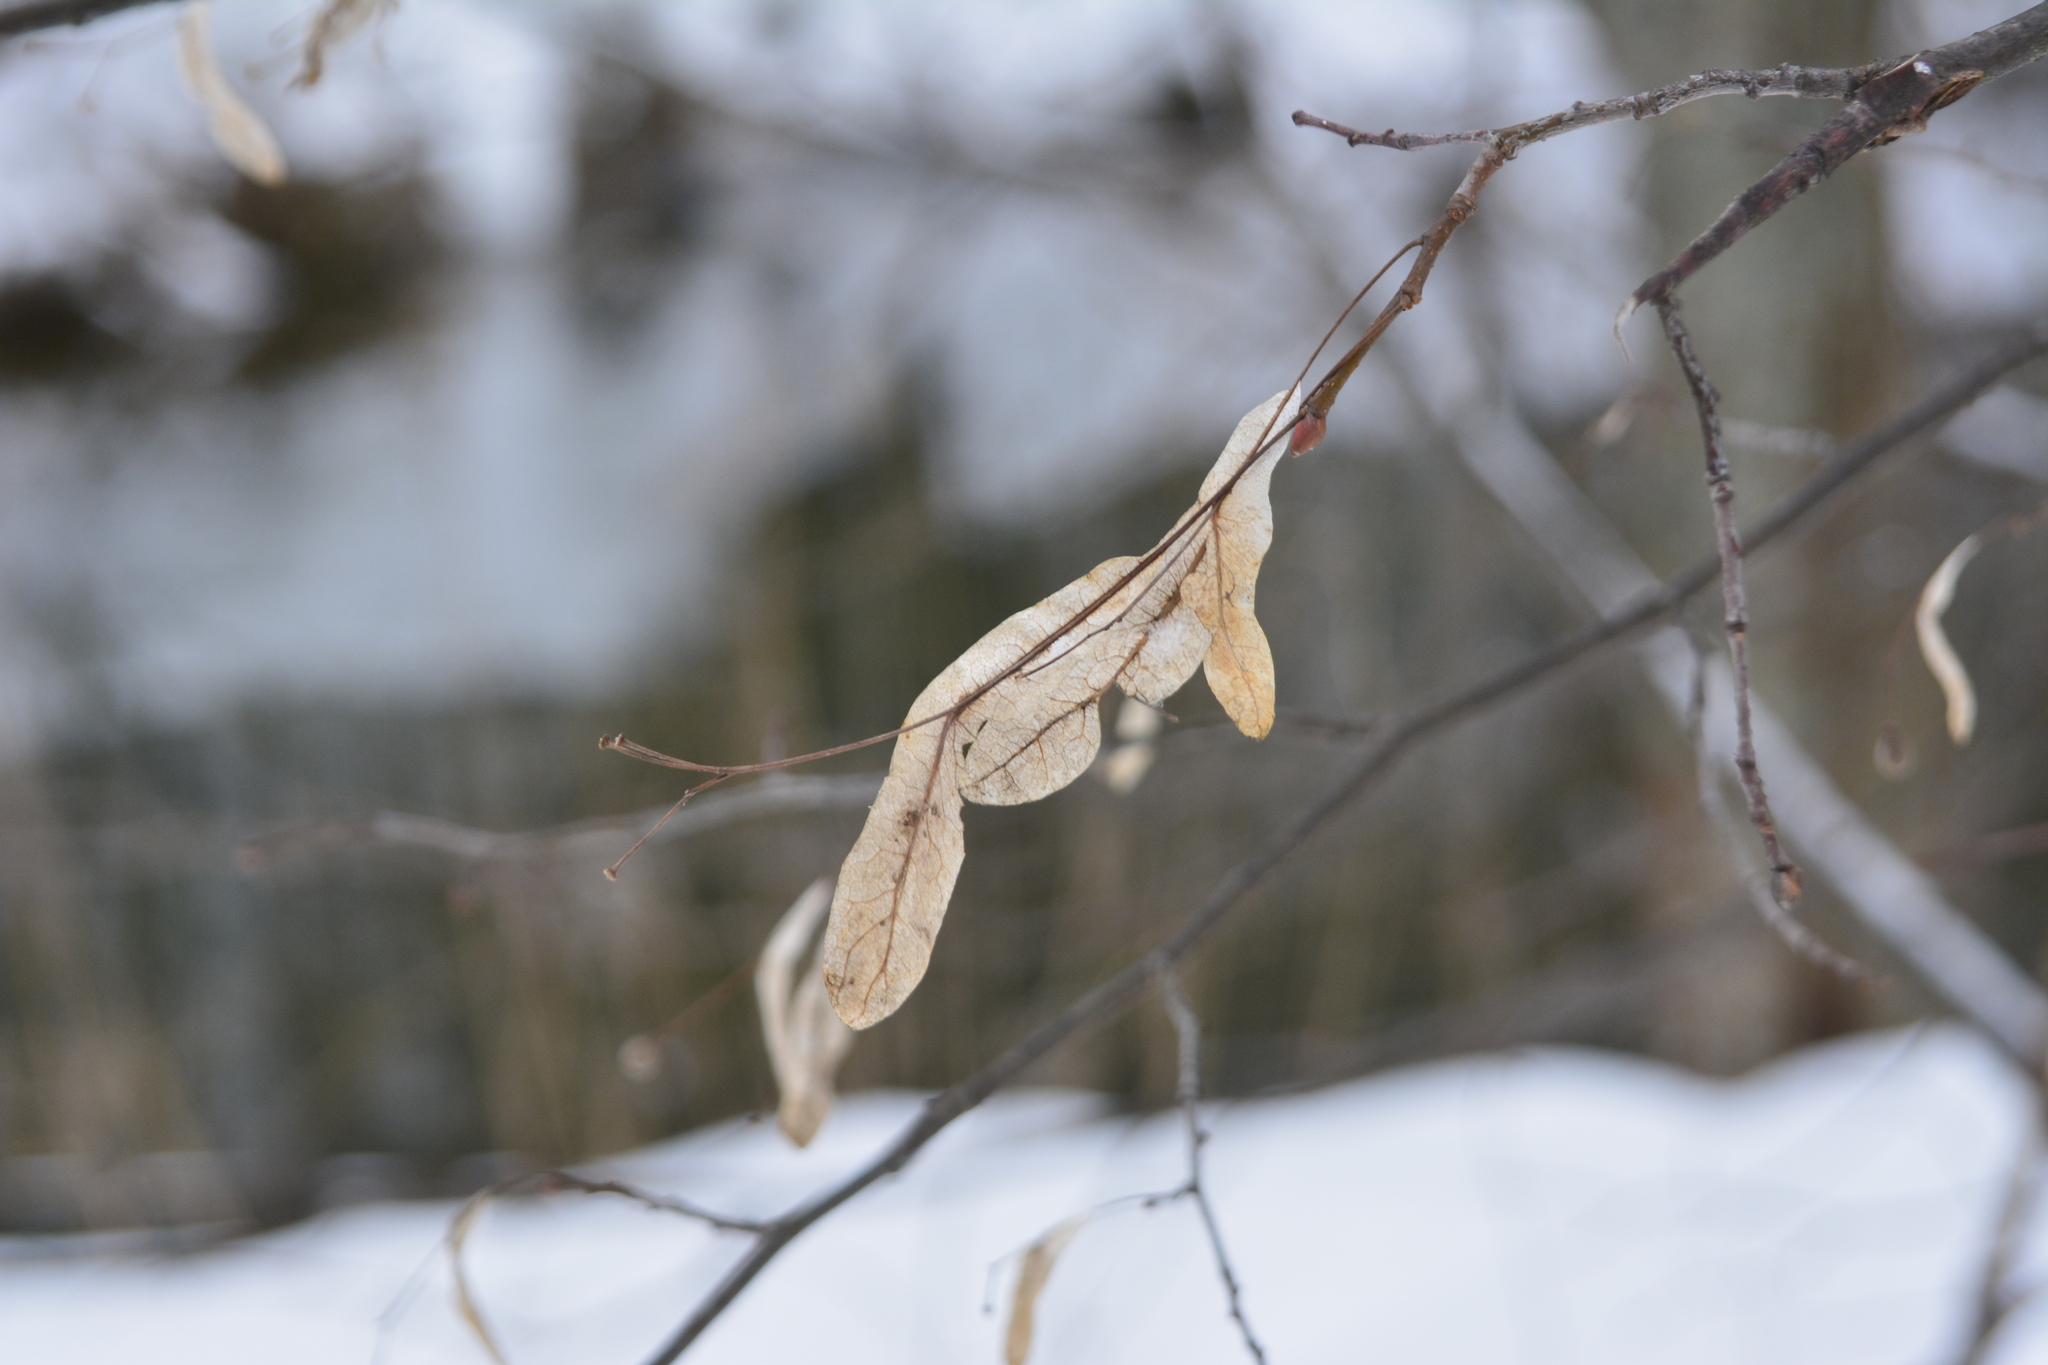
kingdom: Plantae
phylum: Tracheophyta
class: Magnoliopsida
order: Malvales
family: Malvaceae
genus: Tilia
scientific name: Tilia cordata
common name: Small-leaved lime
